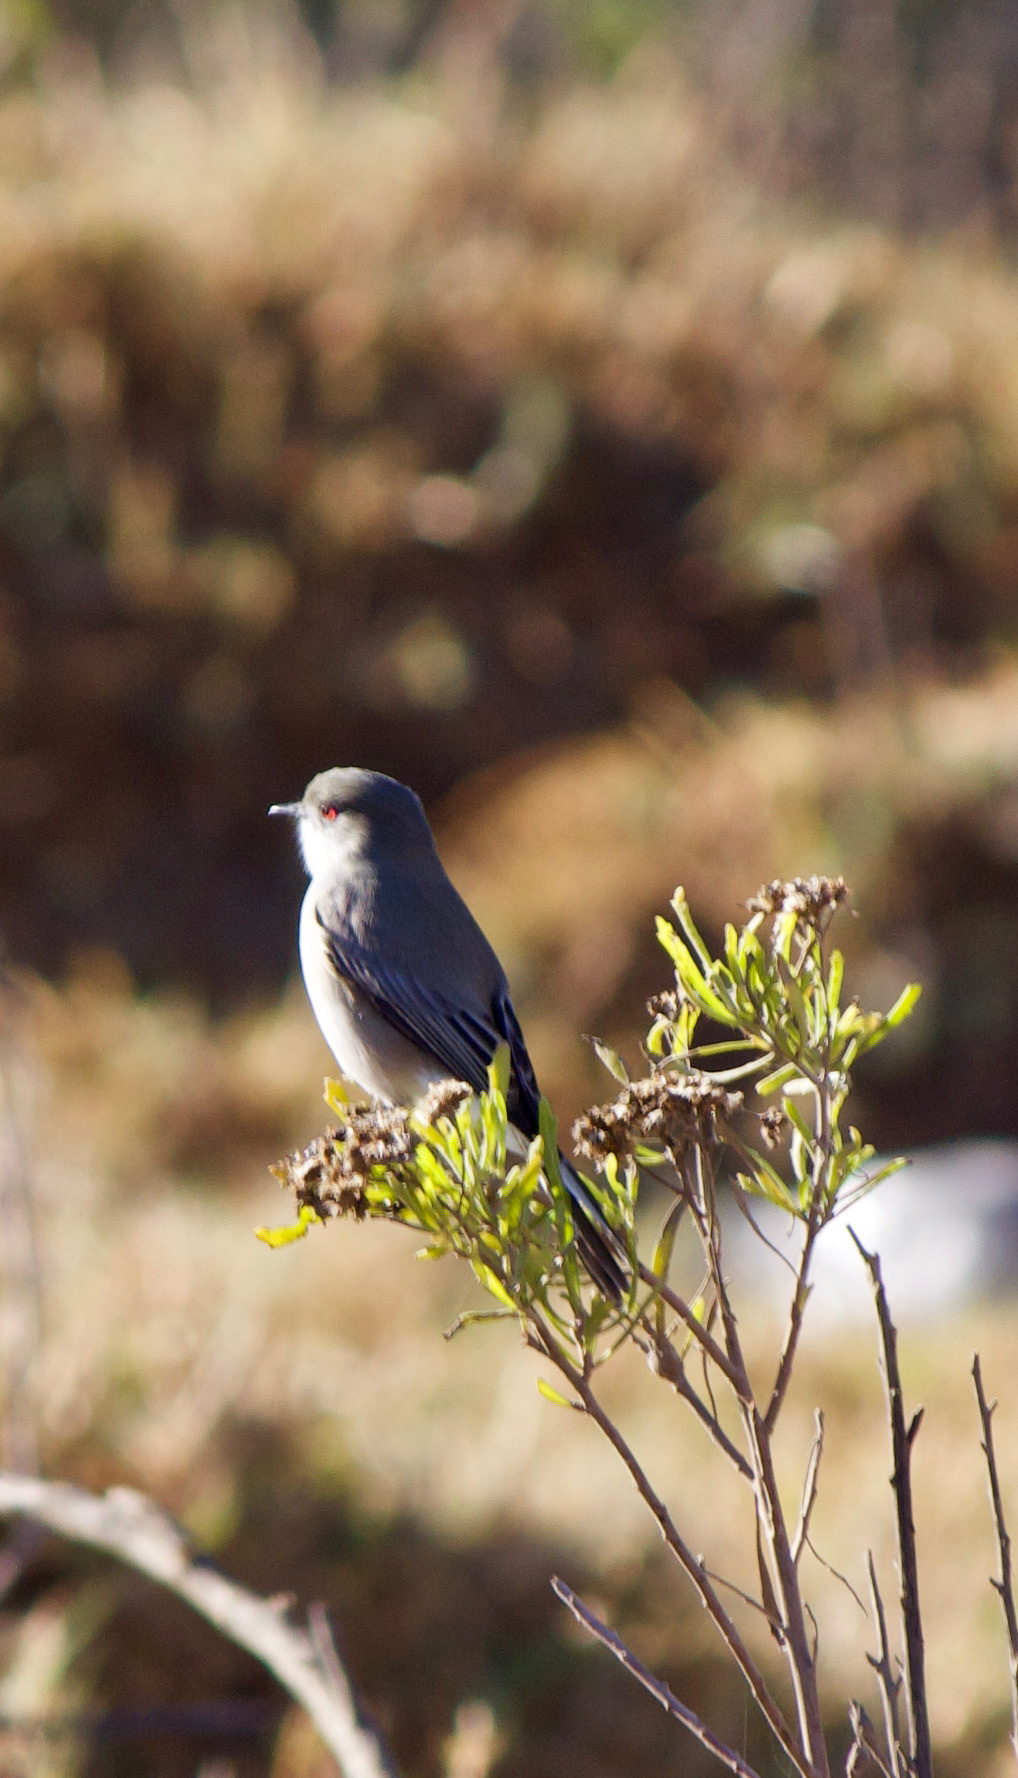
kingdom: Animalia
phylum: Chordata
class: Aves
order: Passeriformes
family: Tyrannidae
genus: Xolmis
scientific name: Xolmis pyrope
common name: Fire-eyed diucon
